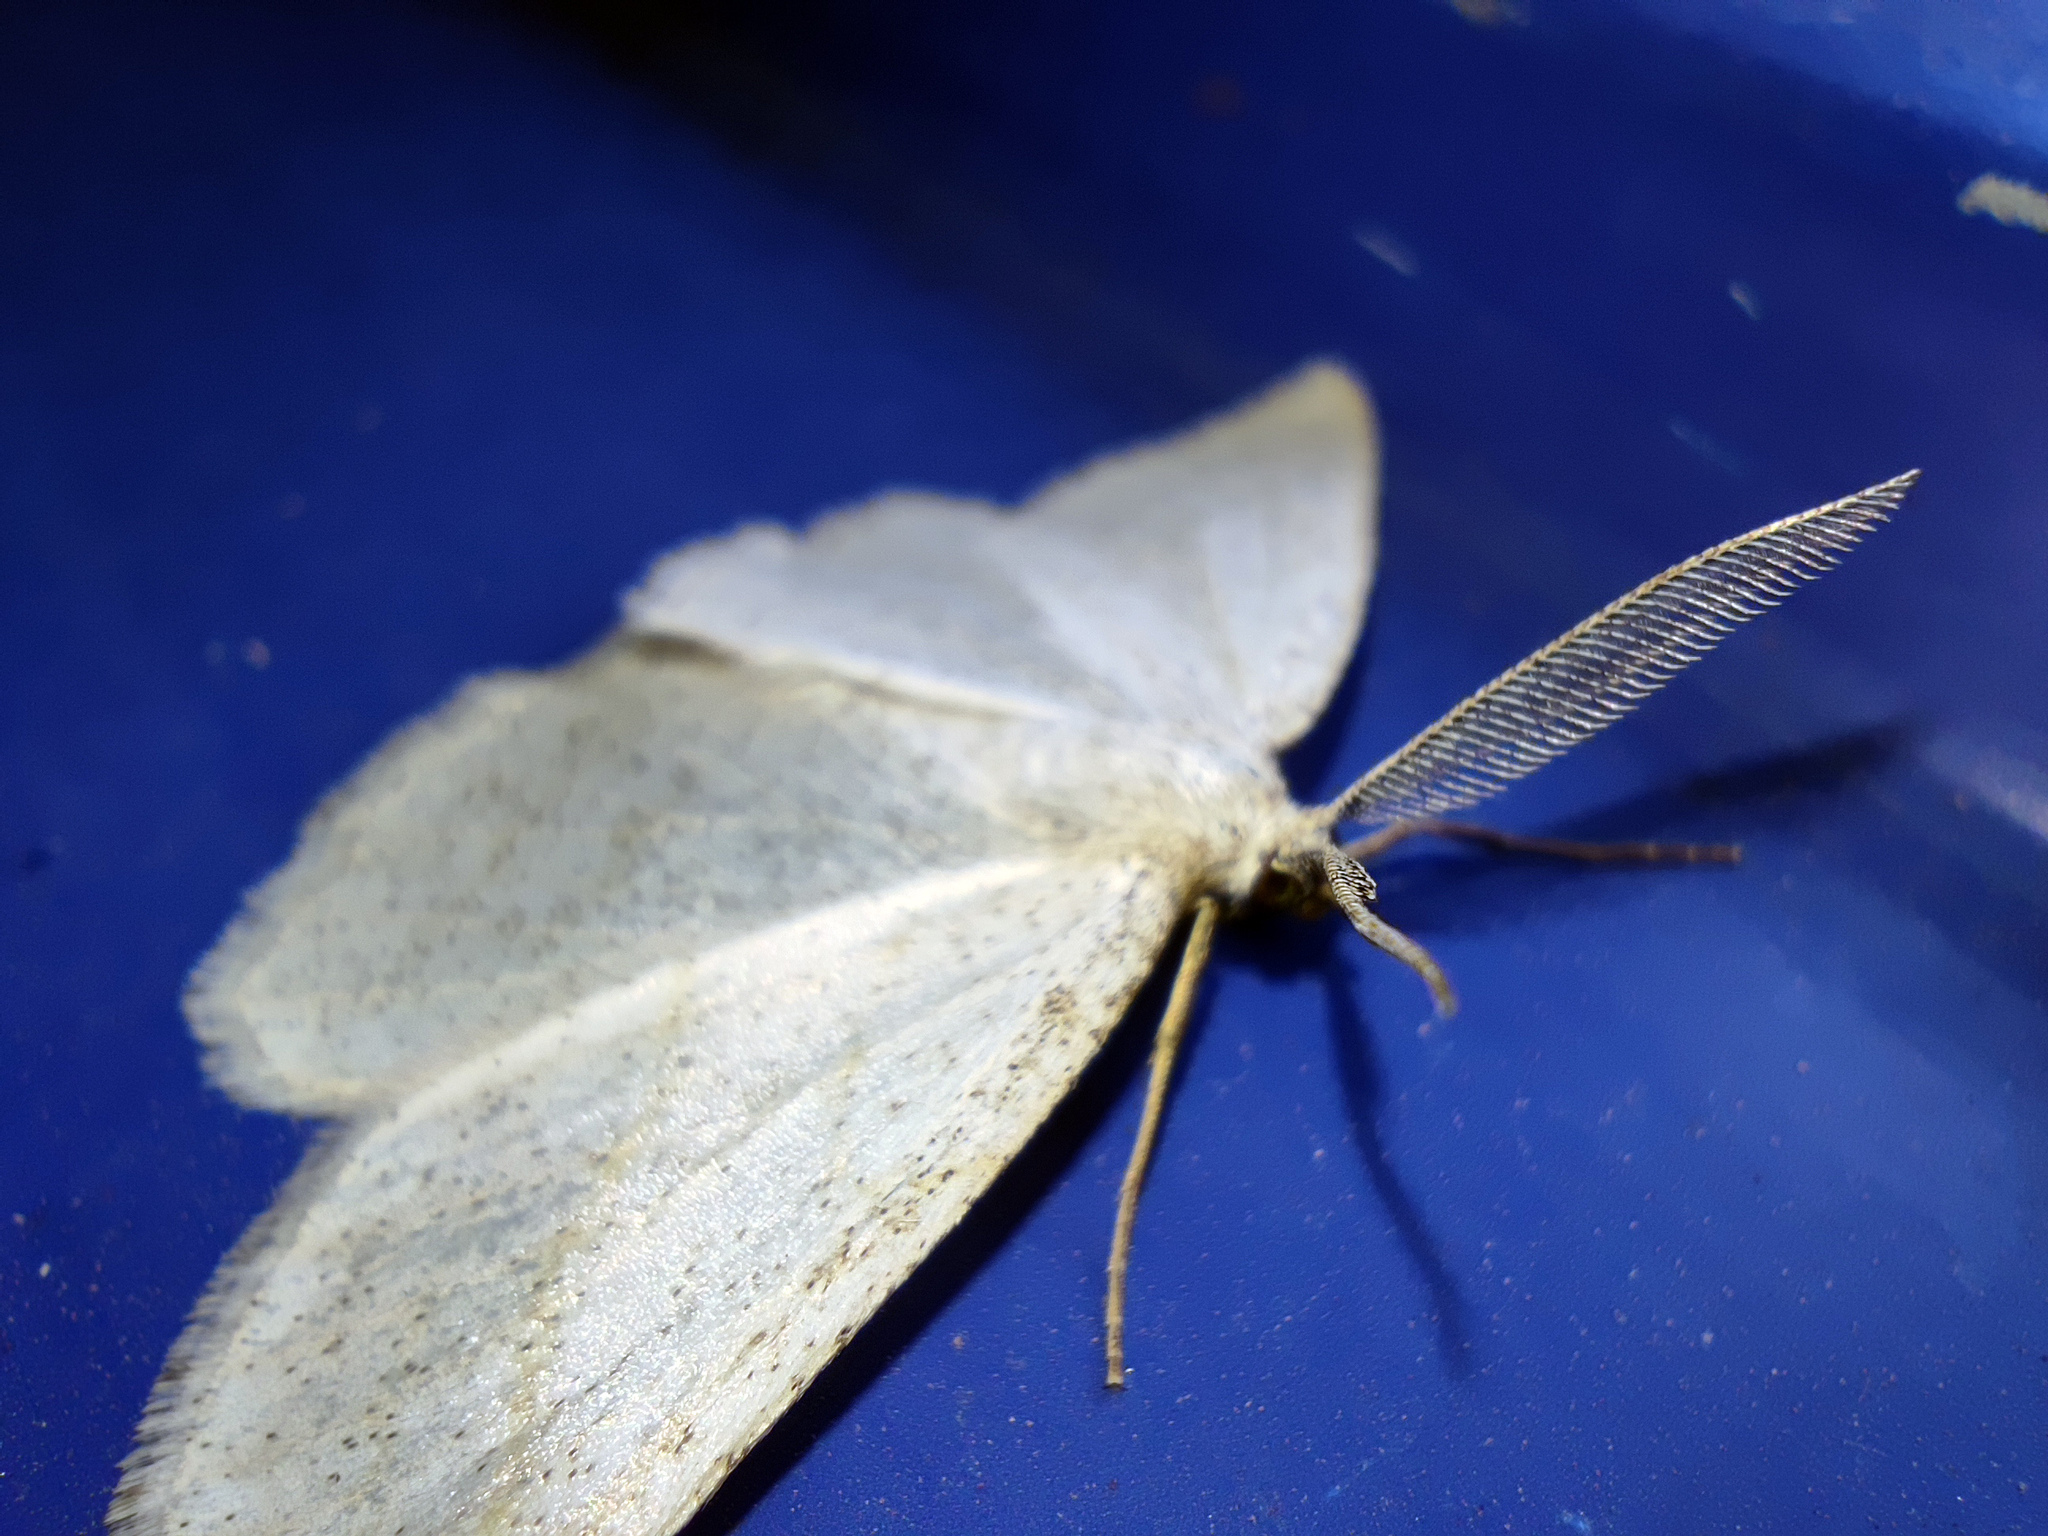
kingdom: Animalia
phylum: Arthropoda
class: Insecta
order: Lepidoptera
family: Geometridae
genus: Perconia
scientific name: Perconia strigillaria
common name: Grass wave
